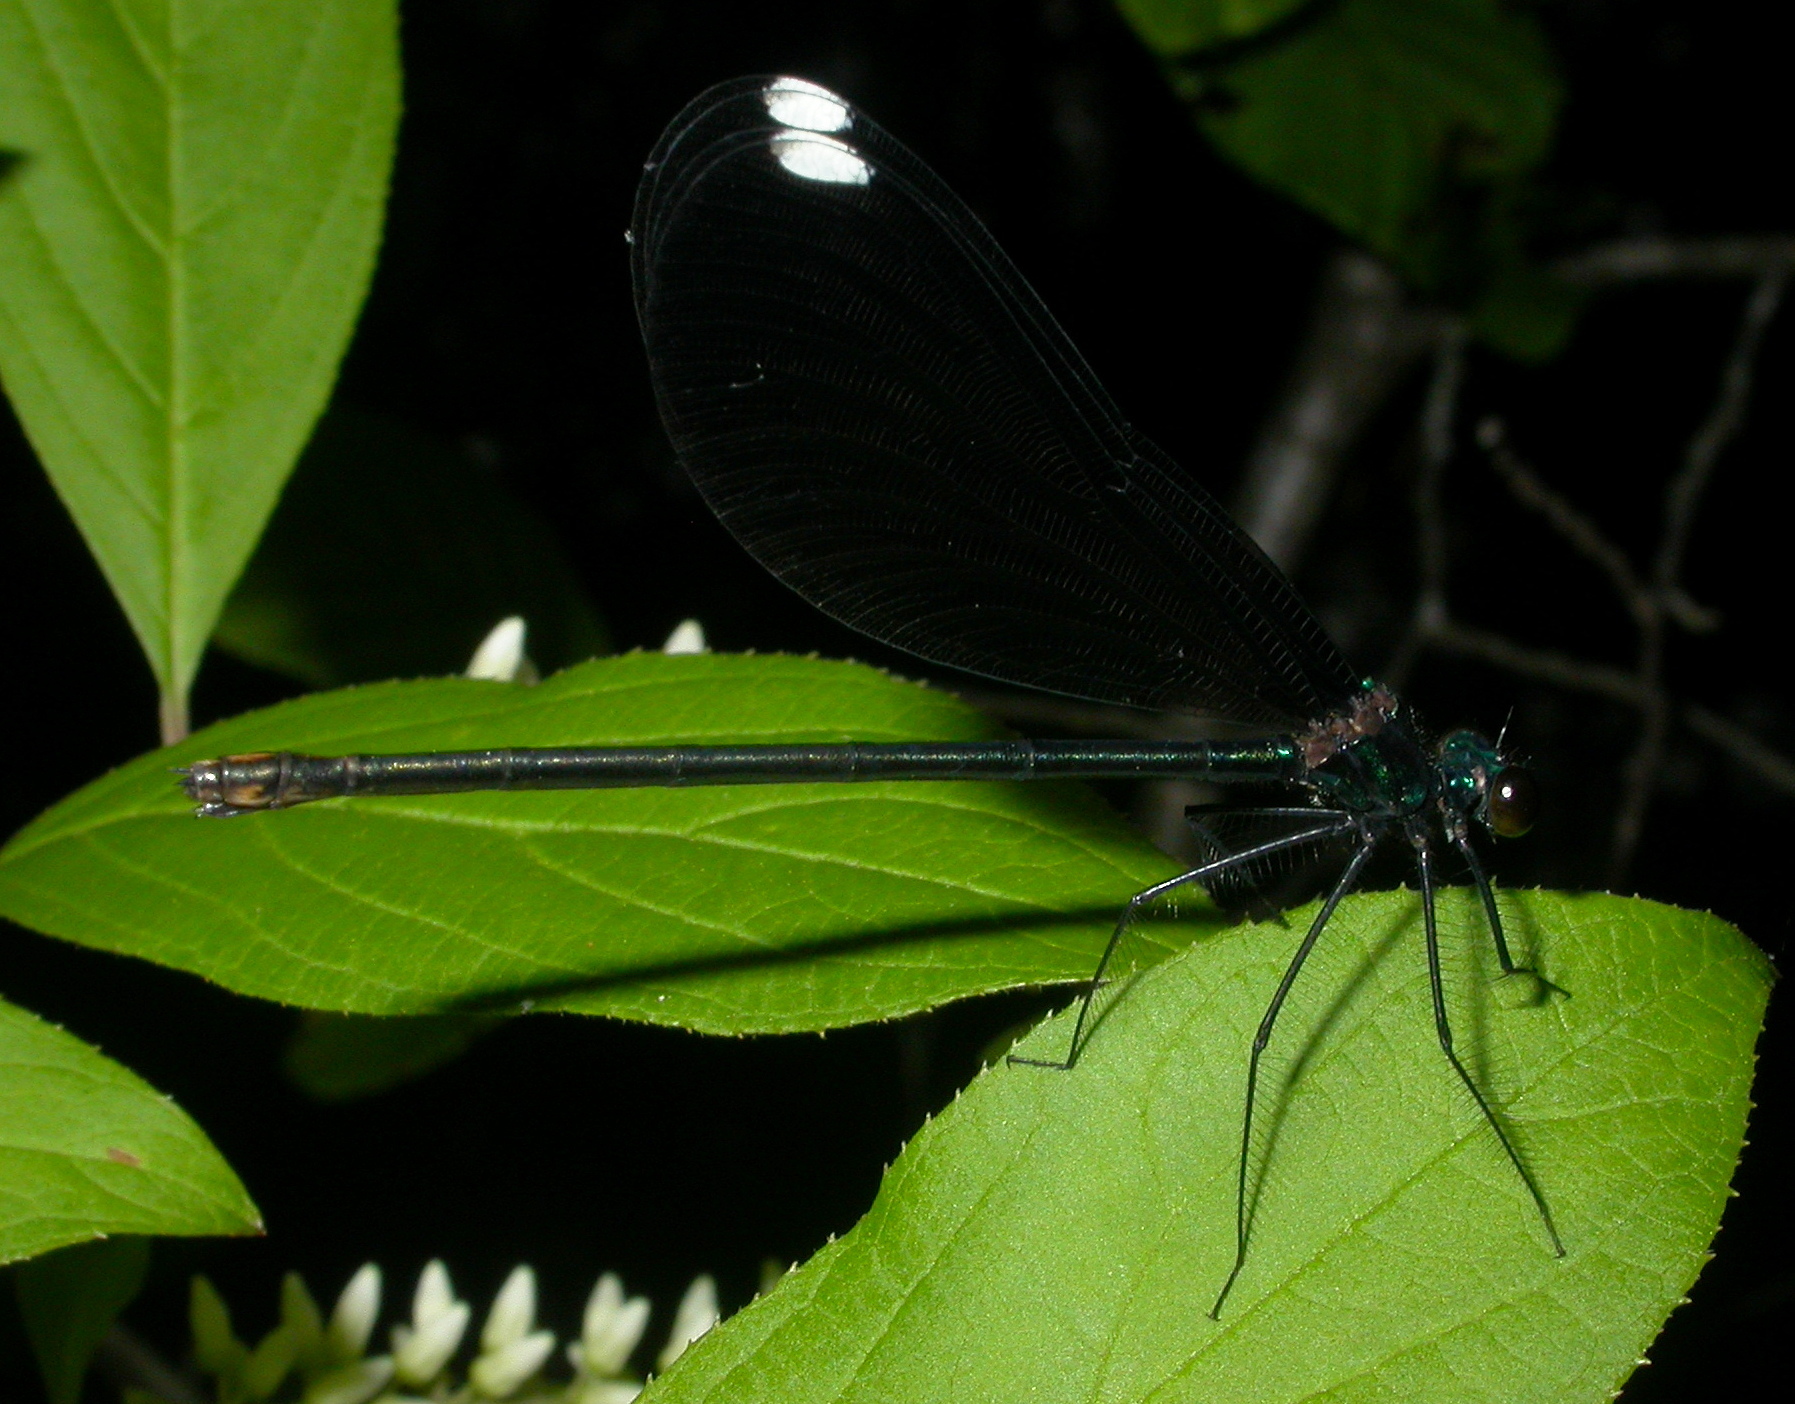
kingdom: Animalia
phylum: Arthropoda
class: Insecta
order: Odonata
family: Calopterygidae
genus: Calopteryx
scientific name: Calopteryx maculata
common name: Ebony jewelwing
